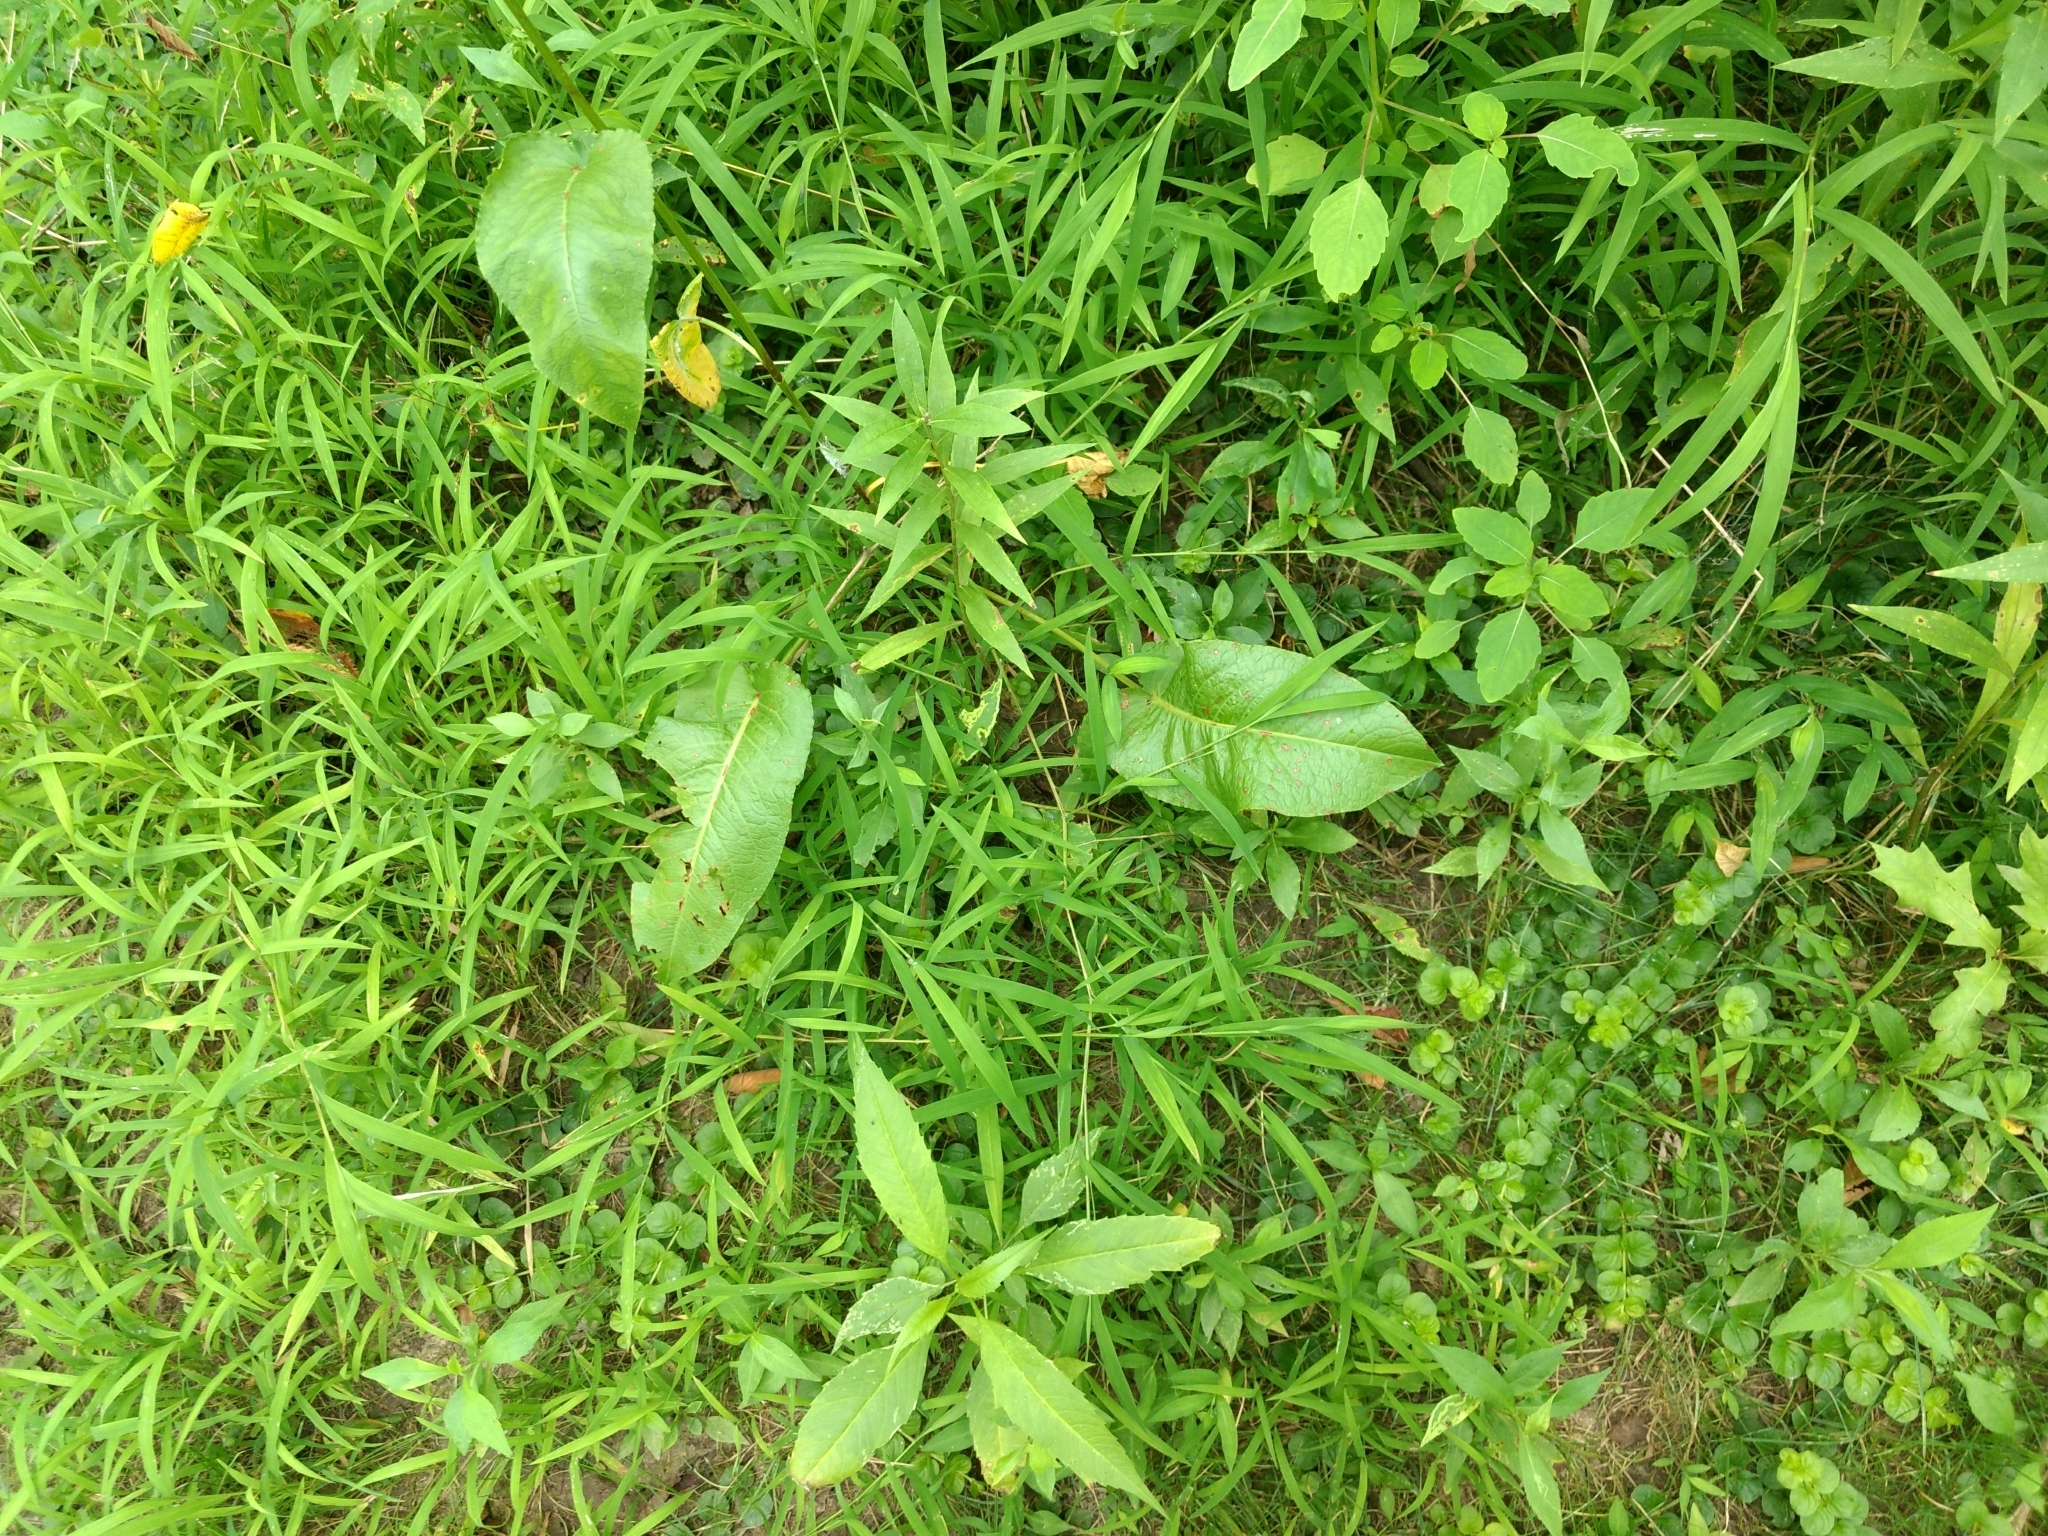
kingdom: Plantae
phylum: Tracheophyta
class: Magnoliopsida
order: Caryophyllales
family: Polygonaceae
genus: Rumex
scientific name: Rumex obtusifolius
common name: Bitter dock
